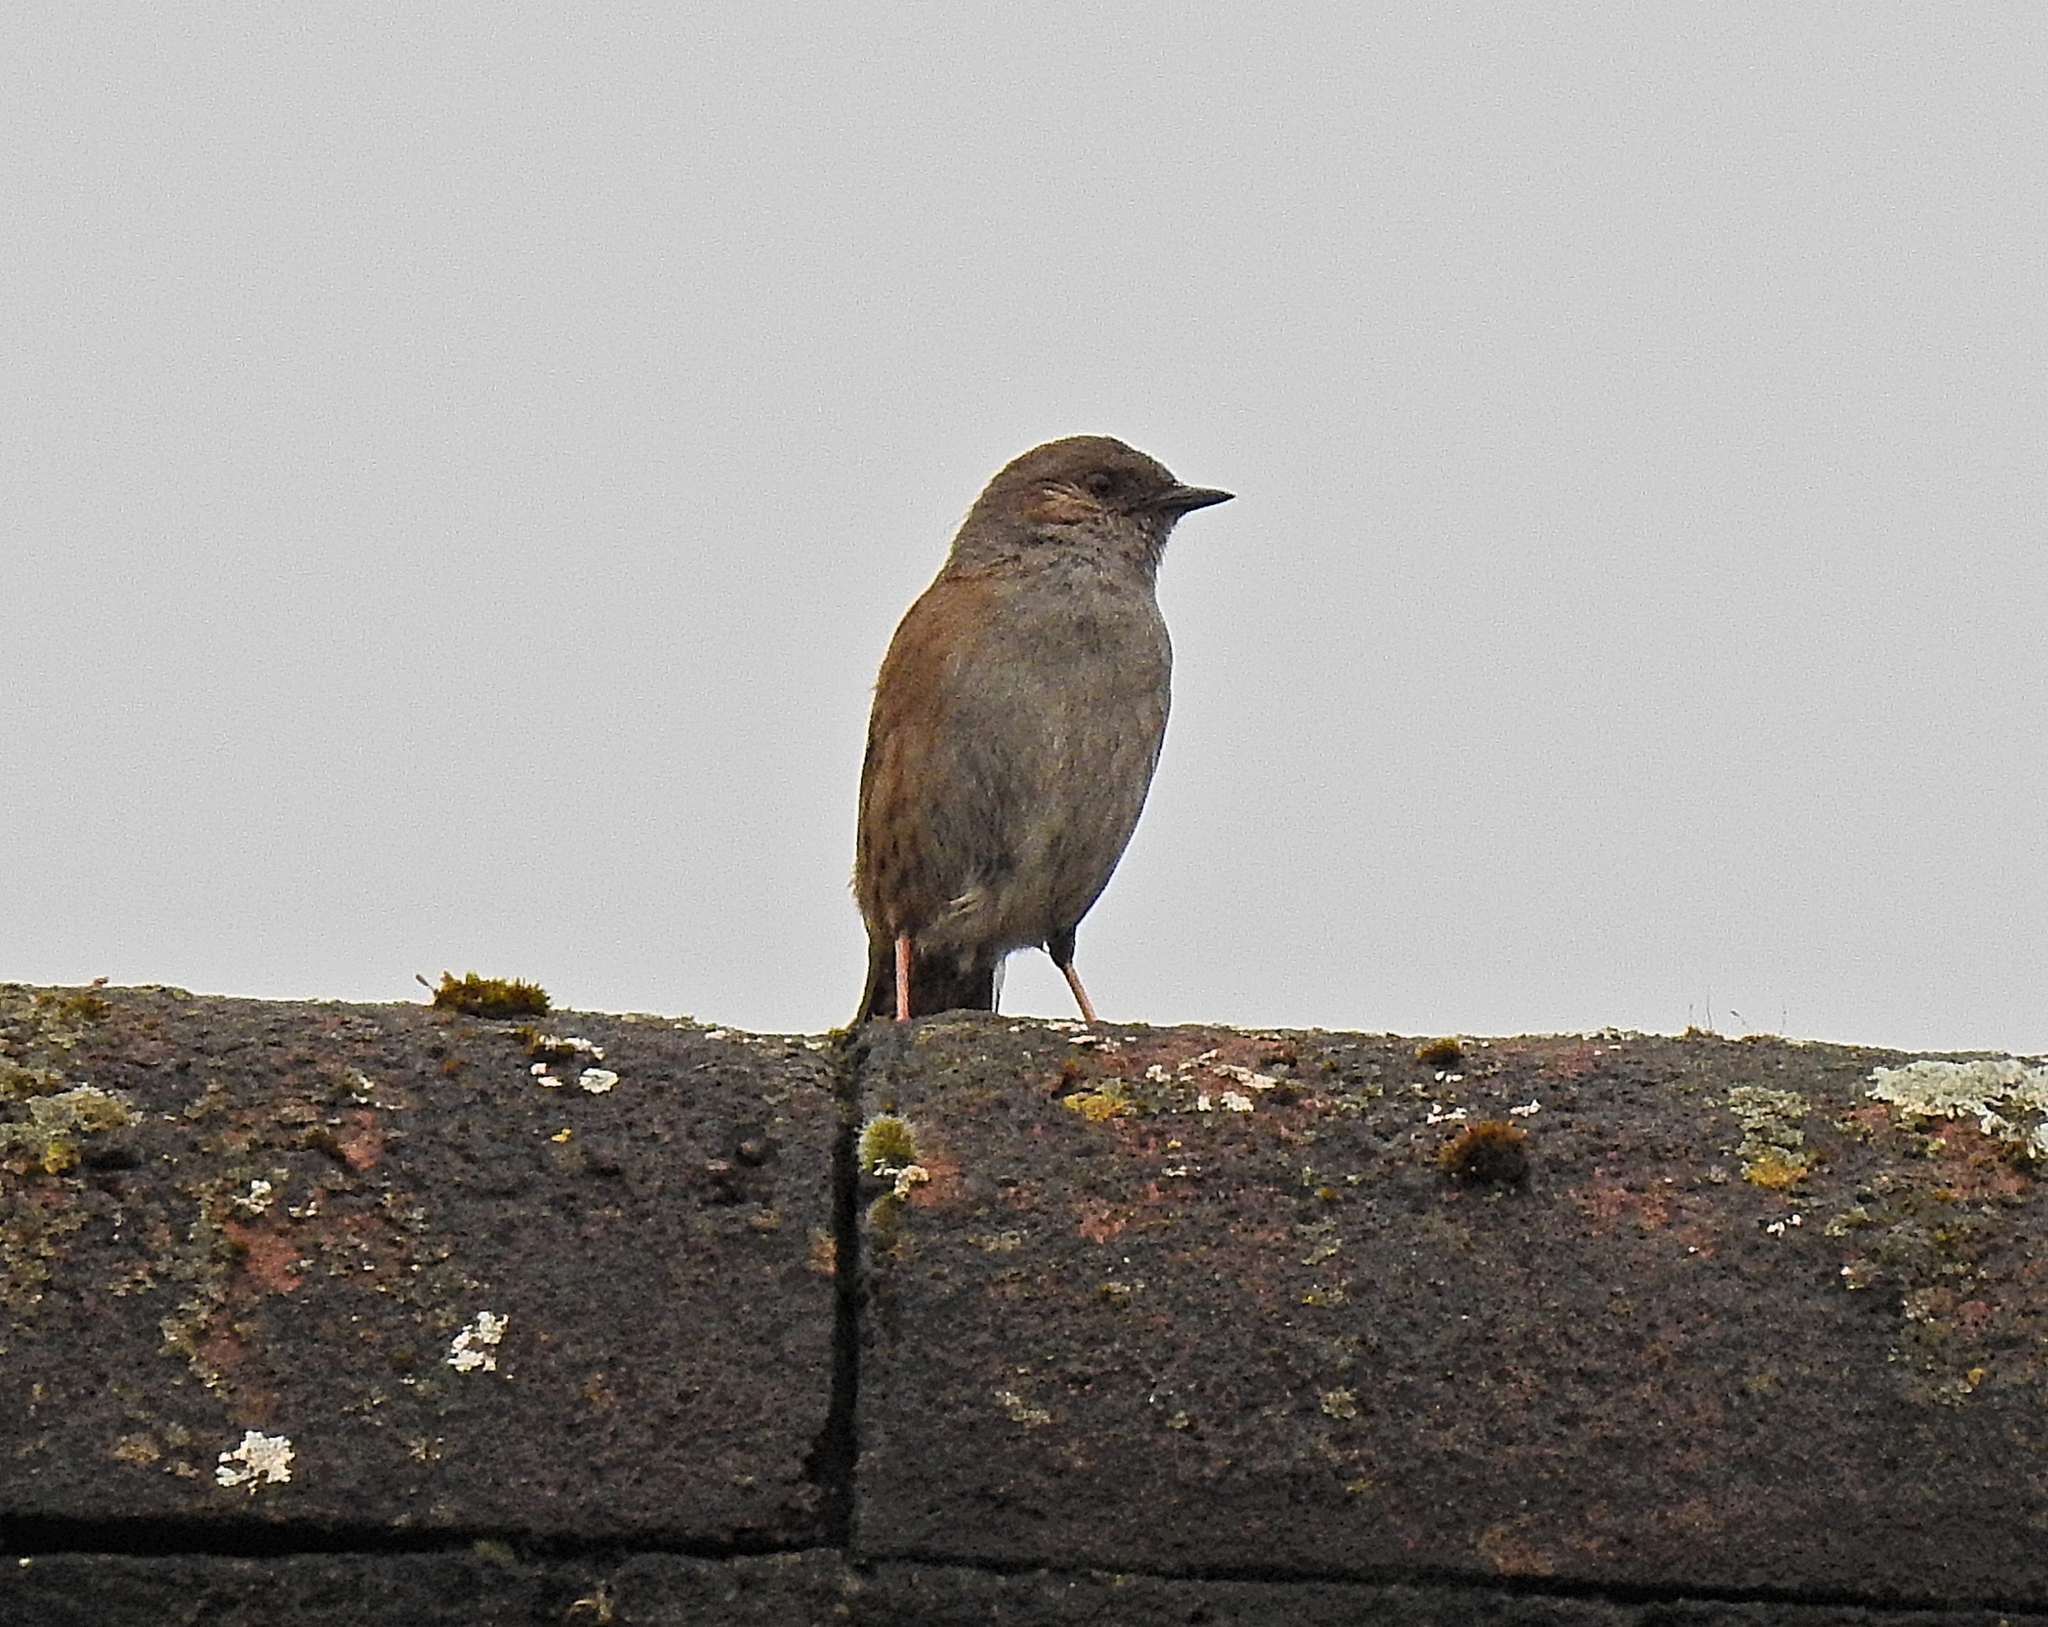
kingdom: Animalia
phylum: Chordata
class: Aves
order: Passeriformes
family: Prunellidae
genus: Prunella
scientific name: Prunella modularis
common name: Dunnock
